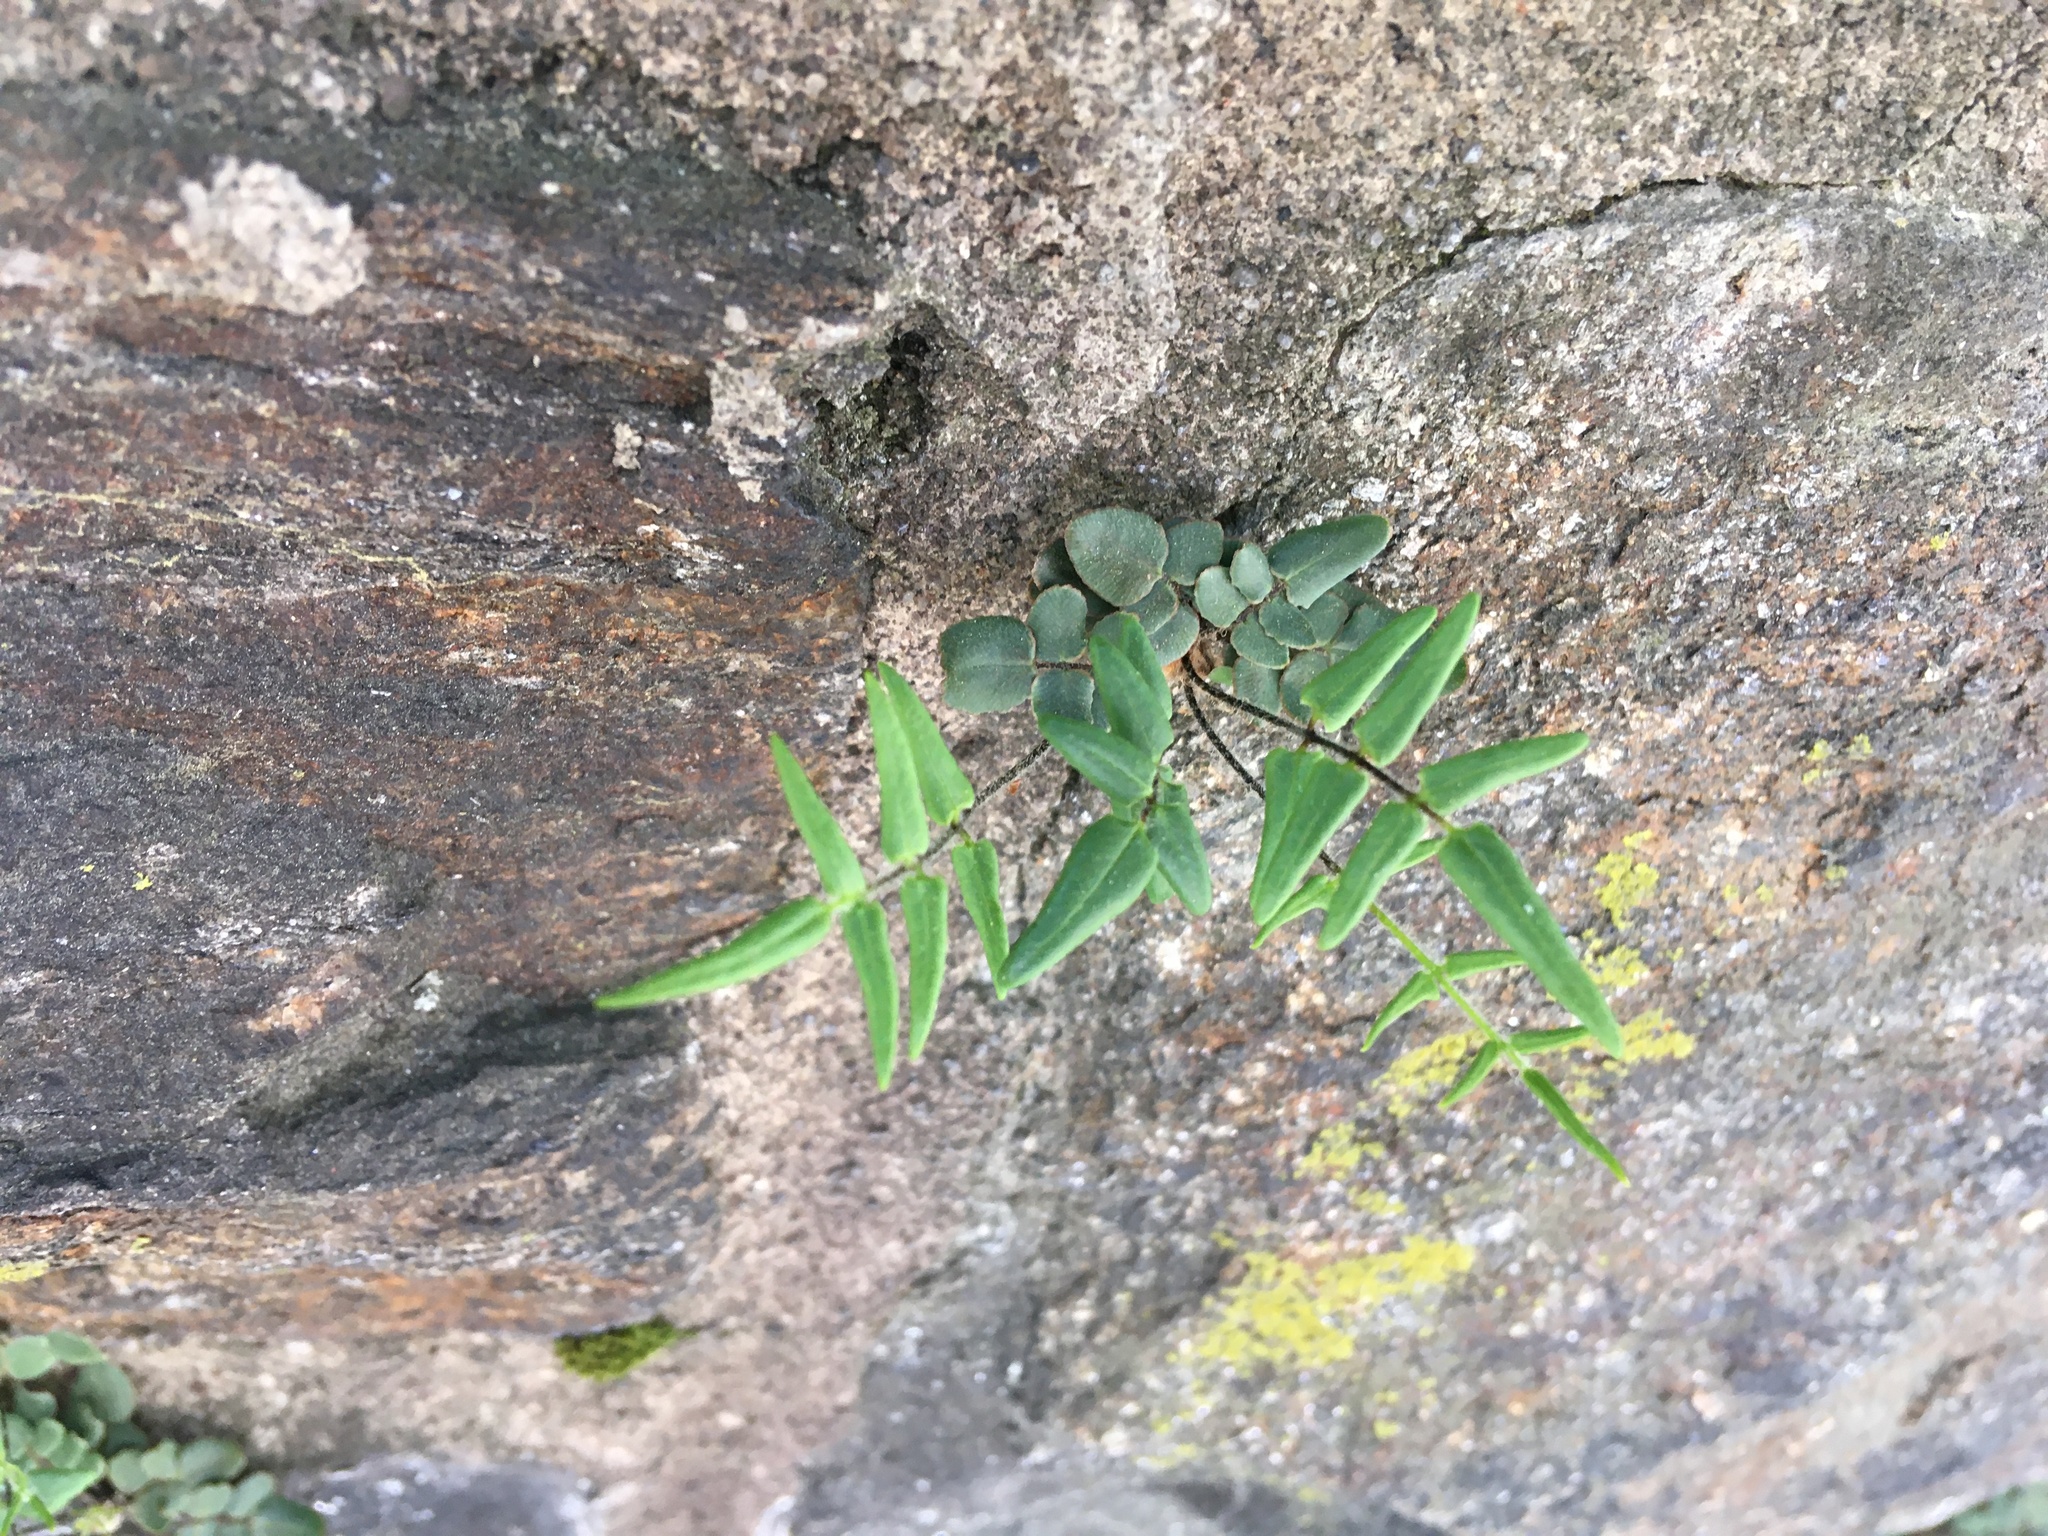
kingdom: Plantae
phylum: Tracheophyta
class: Polypodiopsida
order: Polypodiales
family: Pteridaceae
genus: Pellaea
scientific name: Pellaea atropurpurea
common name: Hairy cliffbrake
